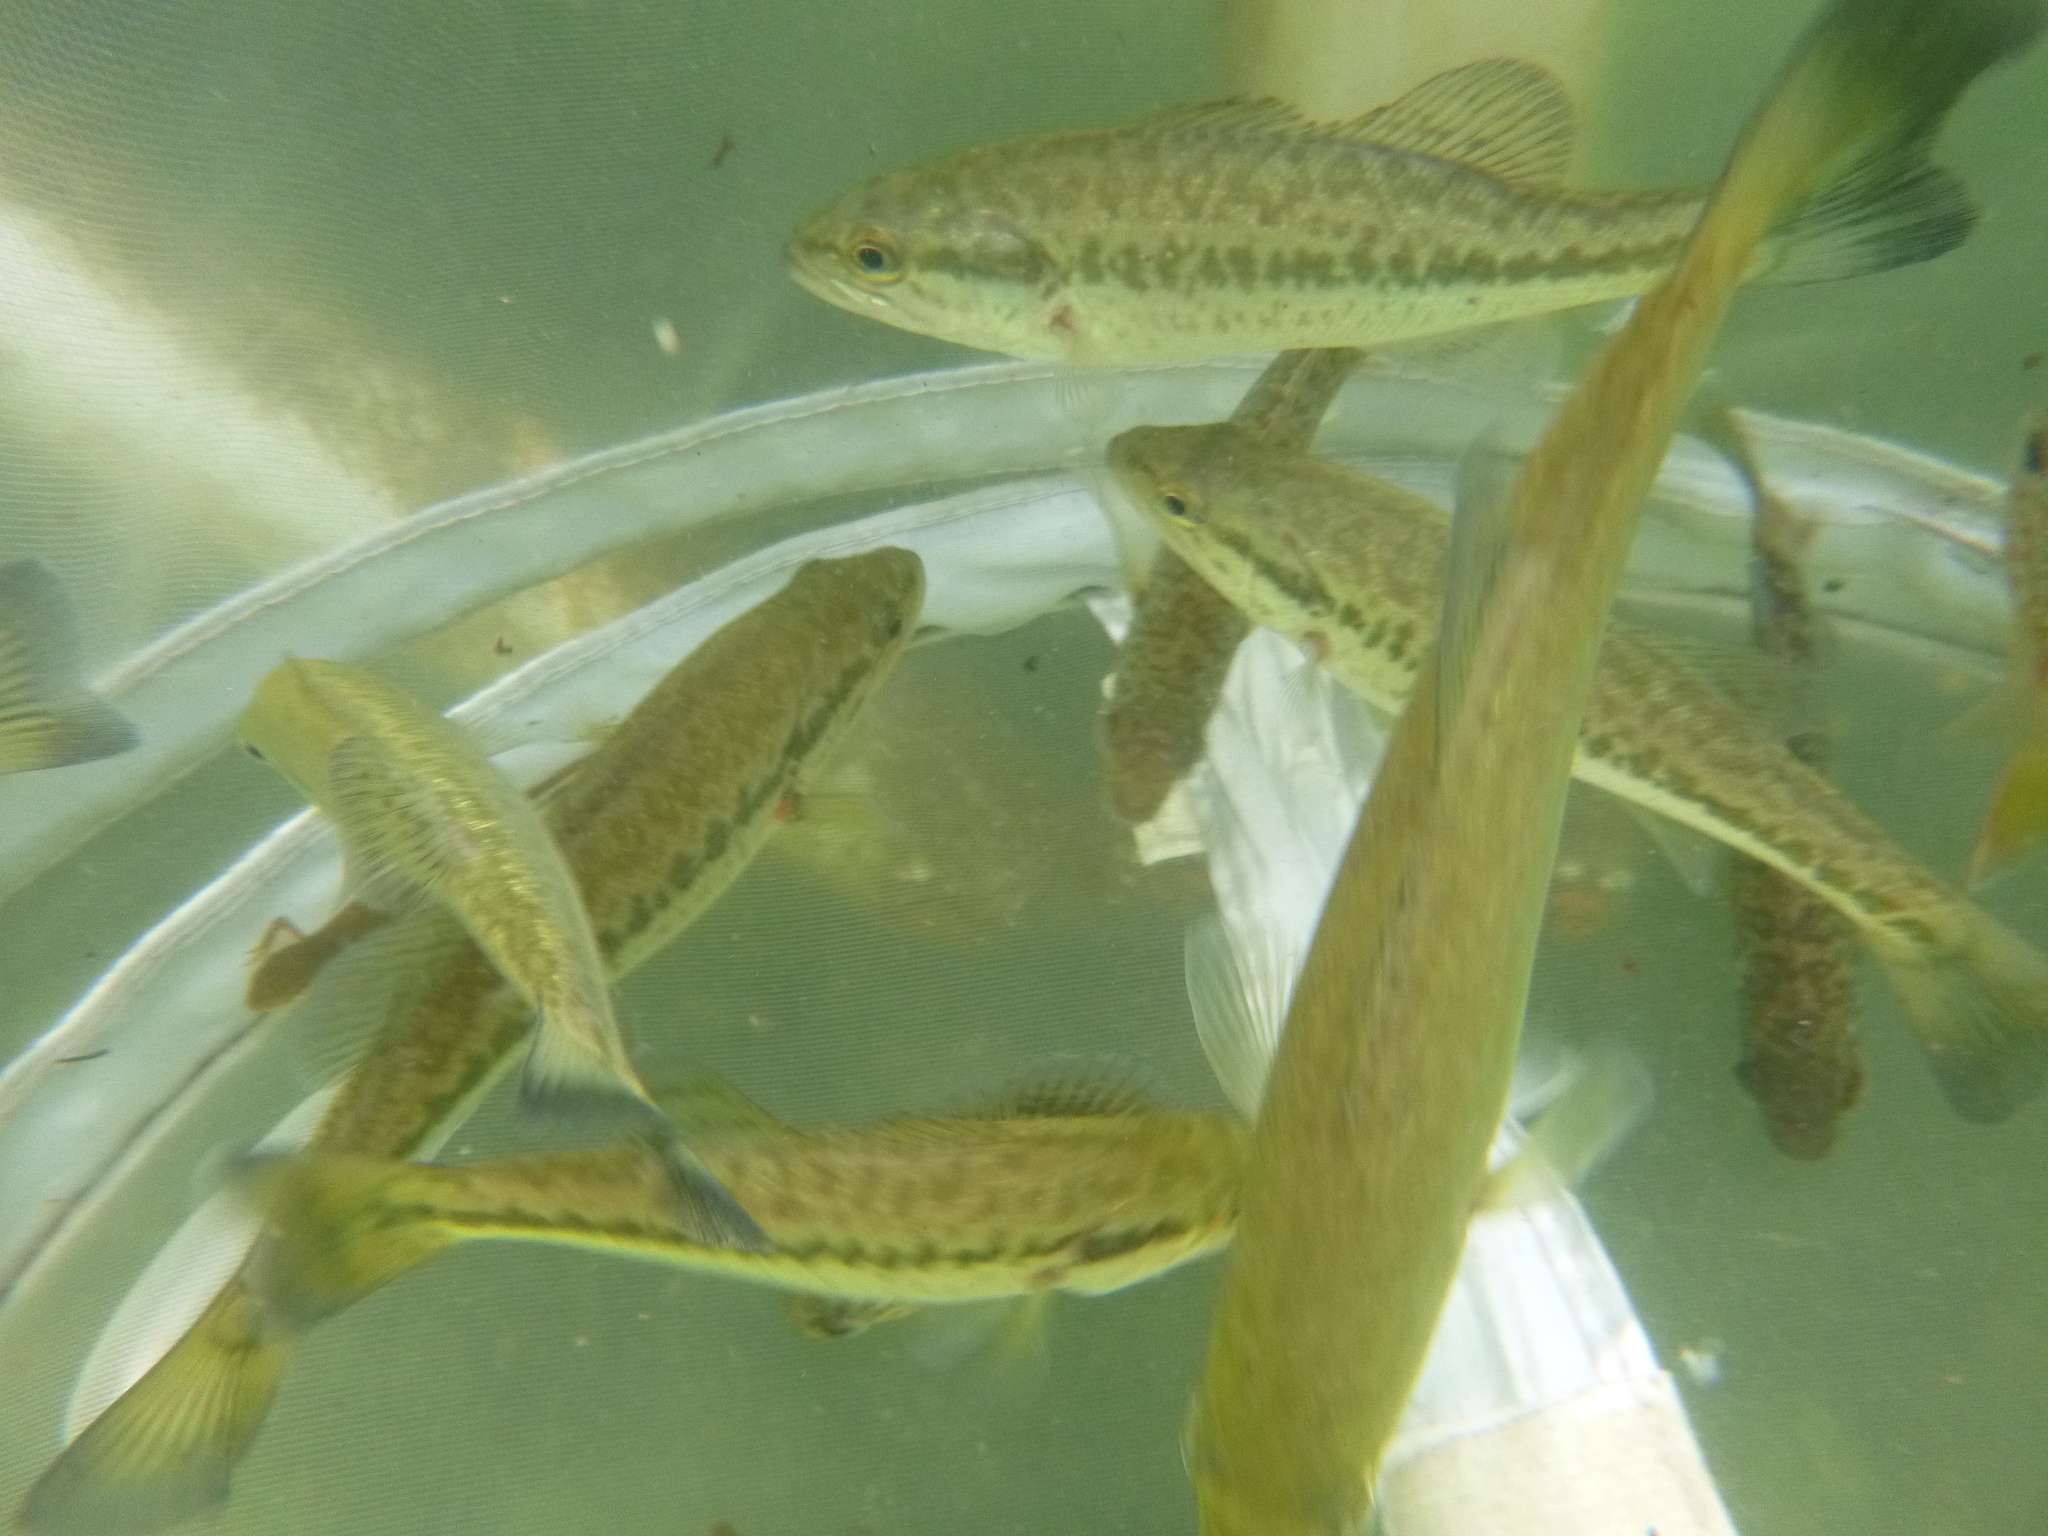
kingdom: Animalia
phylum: Chordata
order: Perciformes
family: Centrarchidae
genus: Micropterus
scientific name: Micropterus
